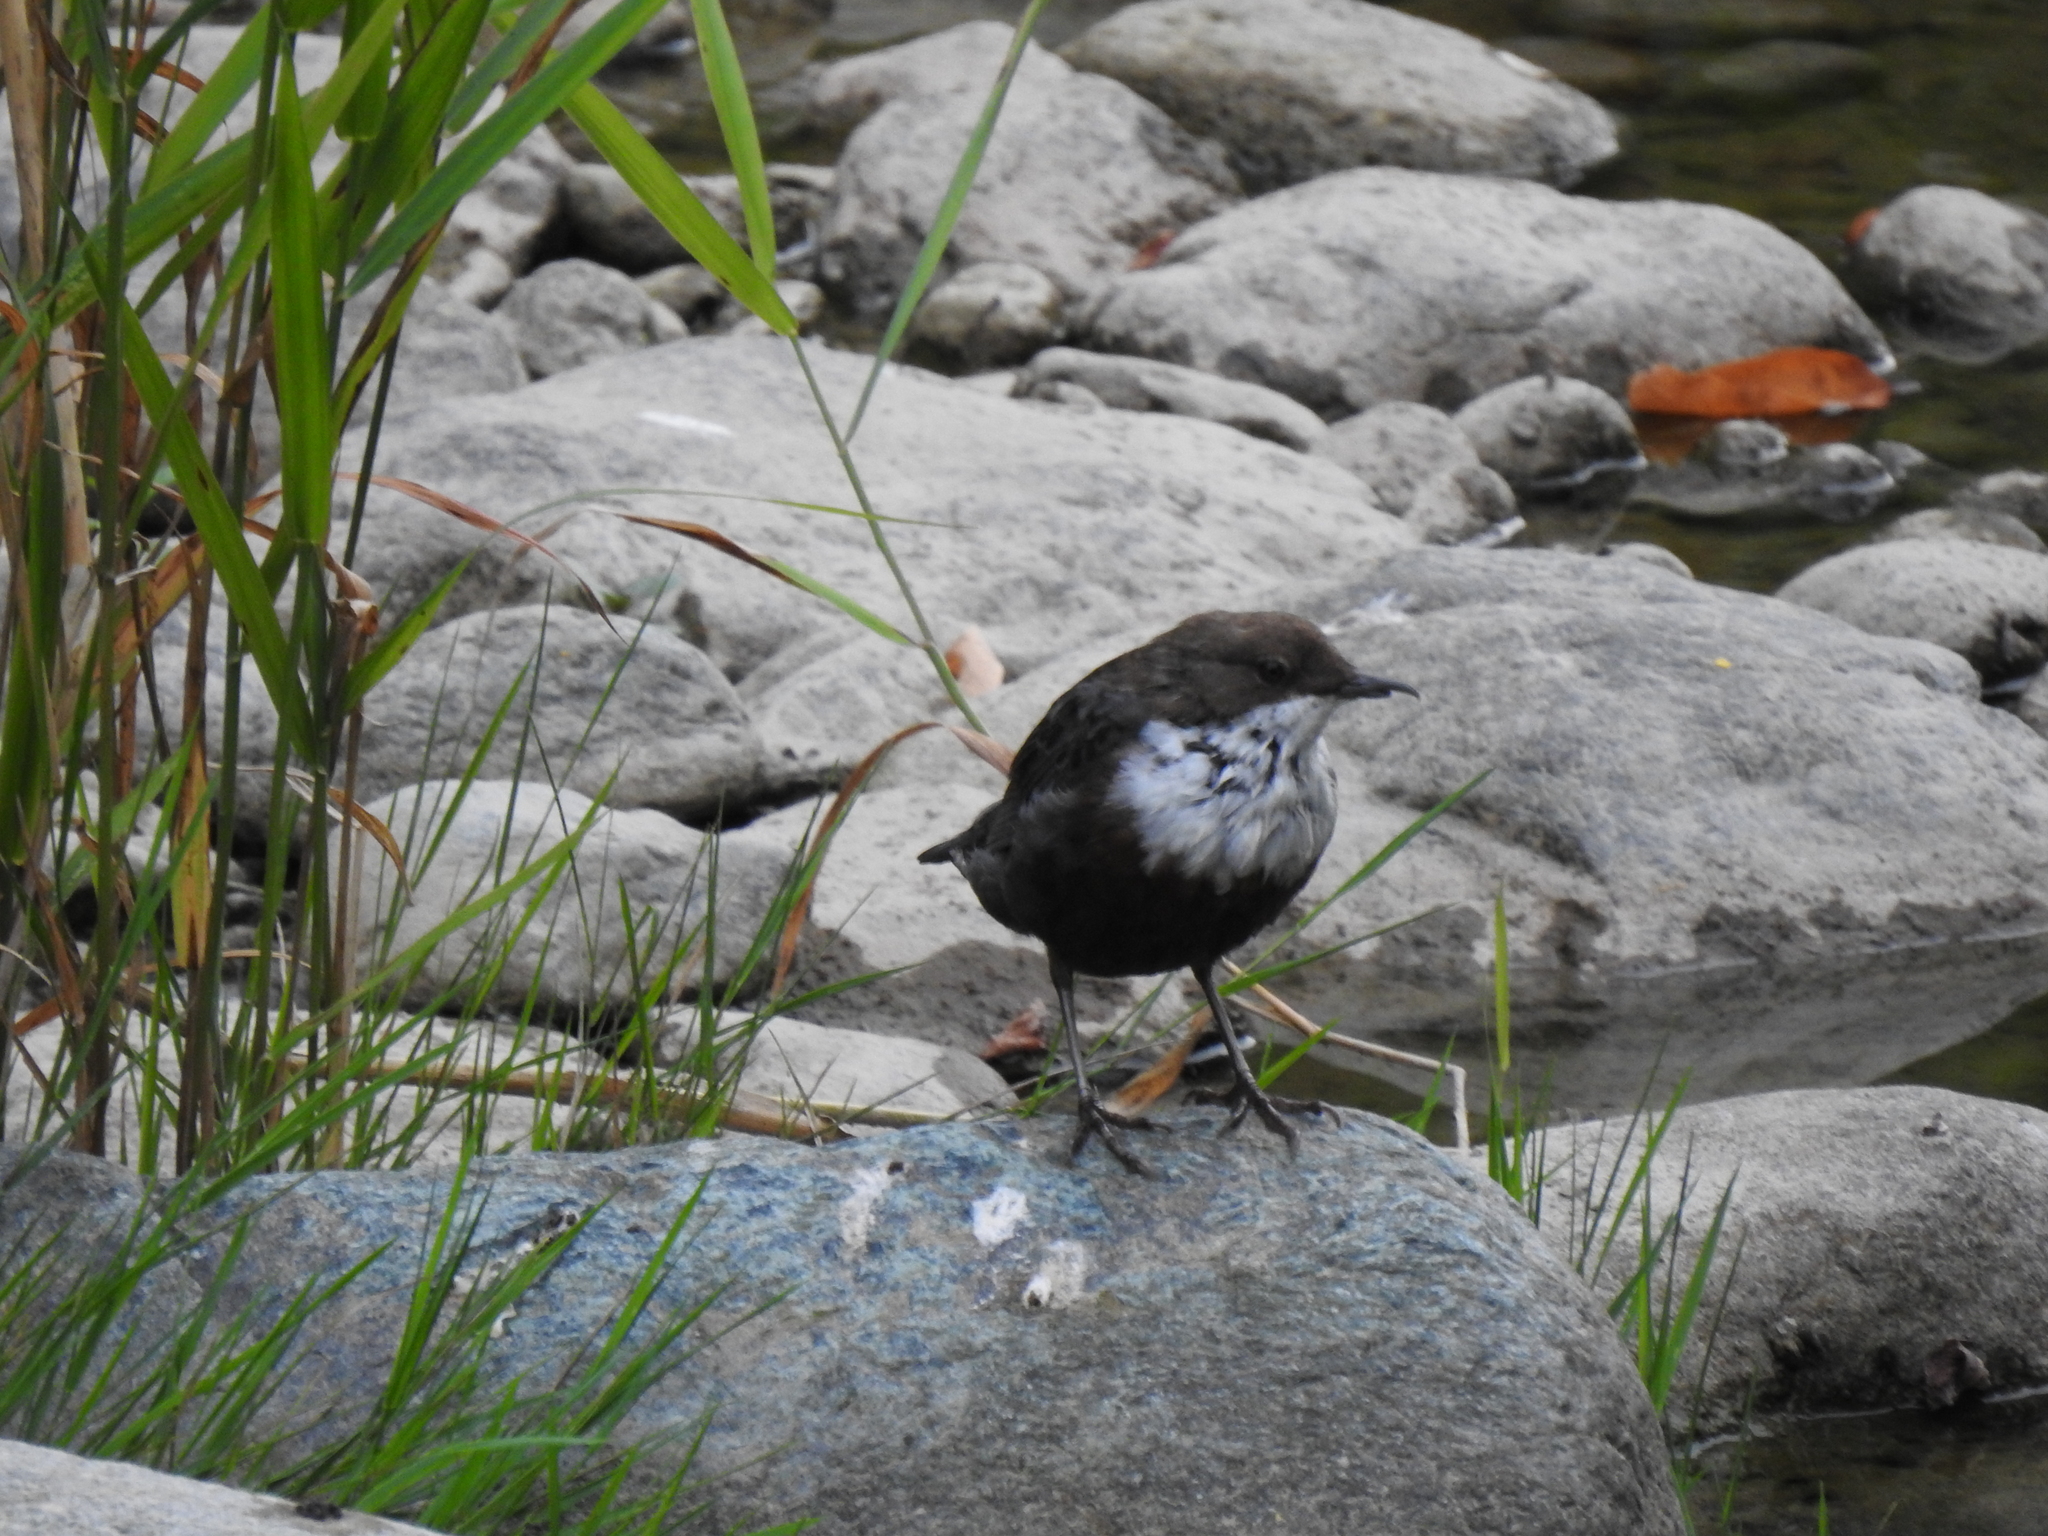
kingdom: Animalia
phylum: Chordata
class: Aves
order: Passeriformes
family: Cinclidae
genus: Cinclus
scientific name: Cinclus cinclus
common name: White-throated dipper
